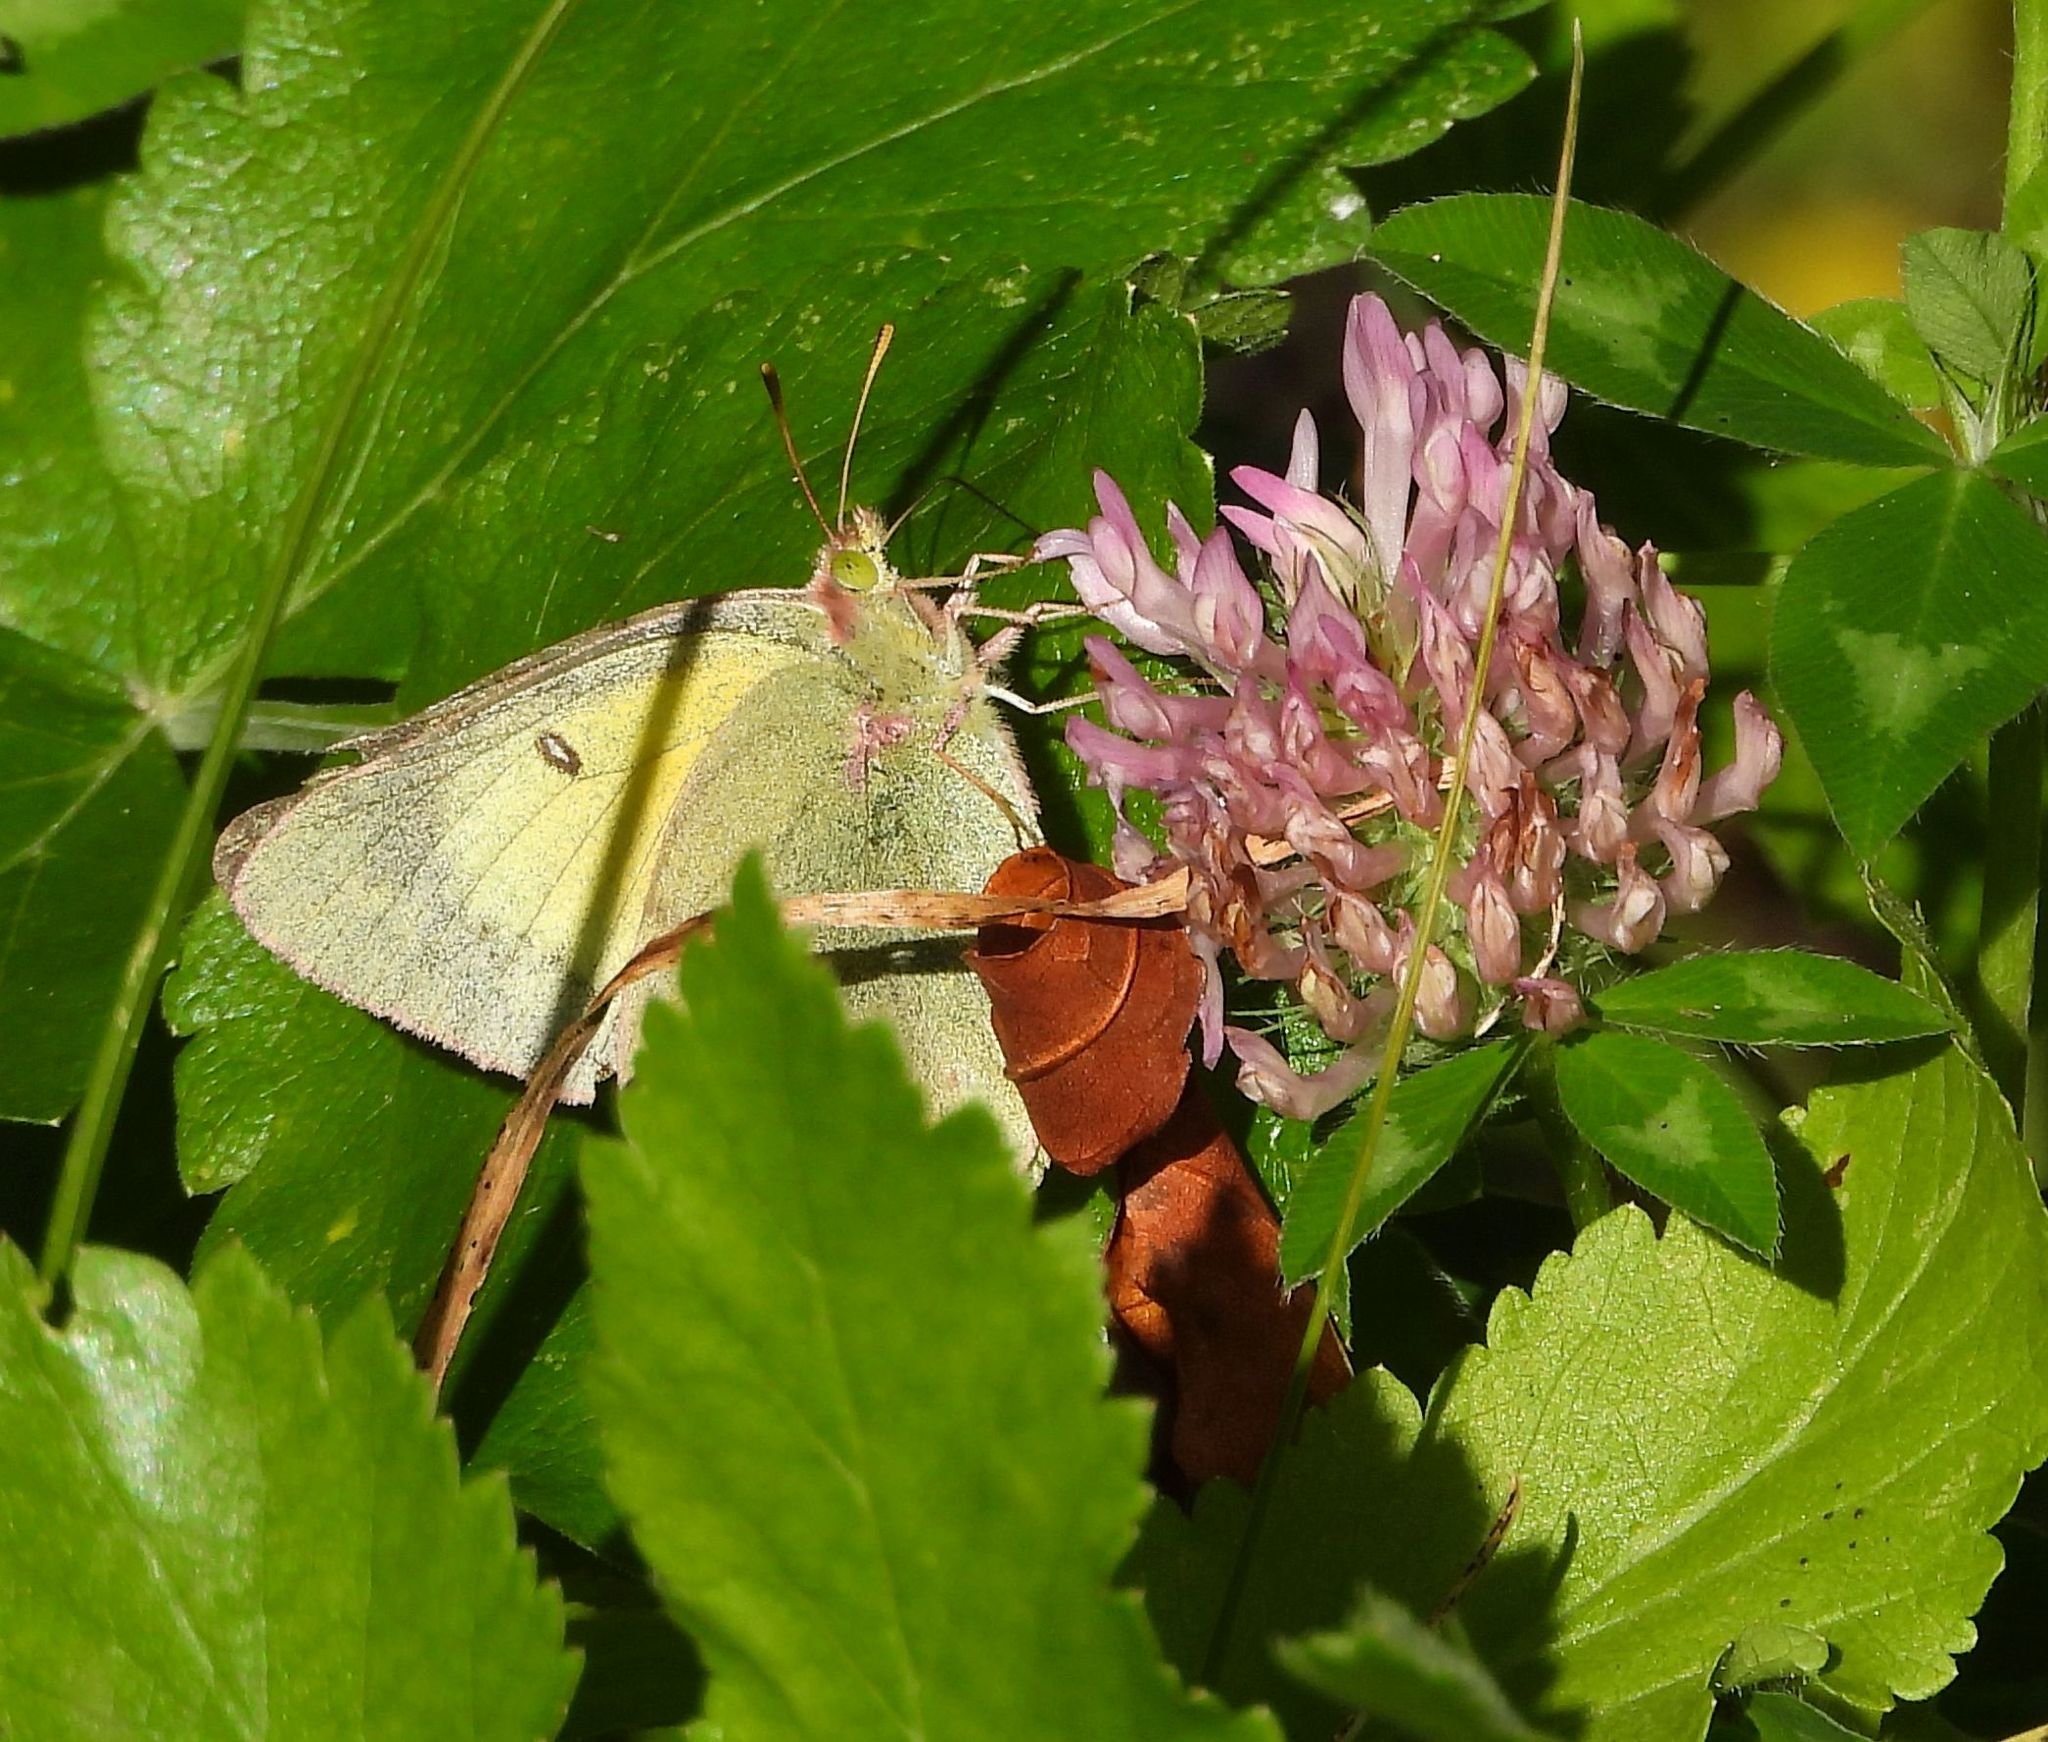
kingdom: Animalia
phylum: Arthropoda
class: Insecta
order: Lepidoptera
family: Pieridae
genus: Colias
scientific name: Colias philodice
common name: Clouded sulphur
